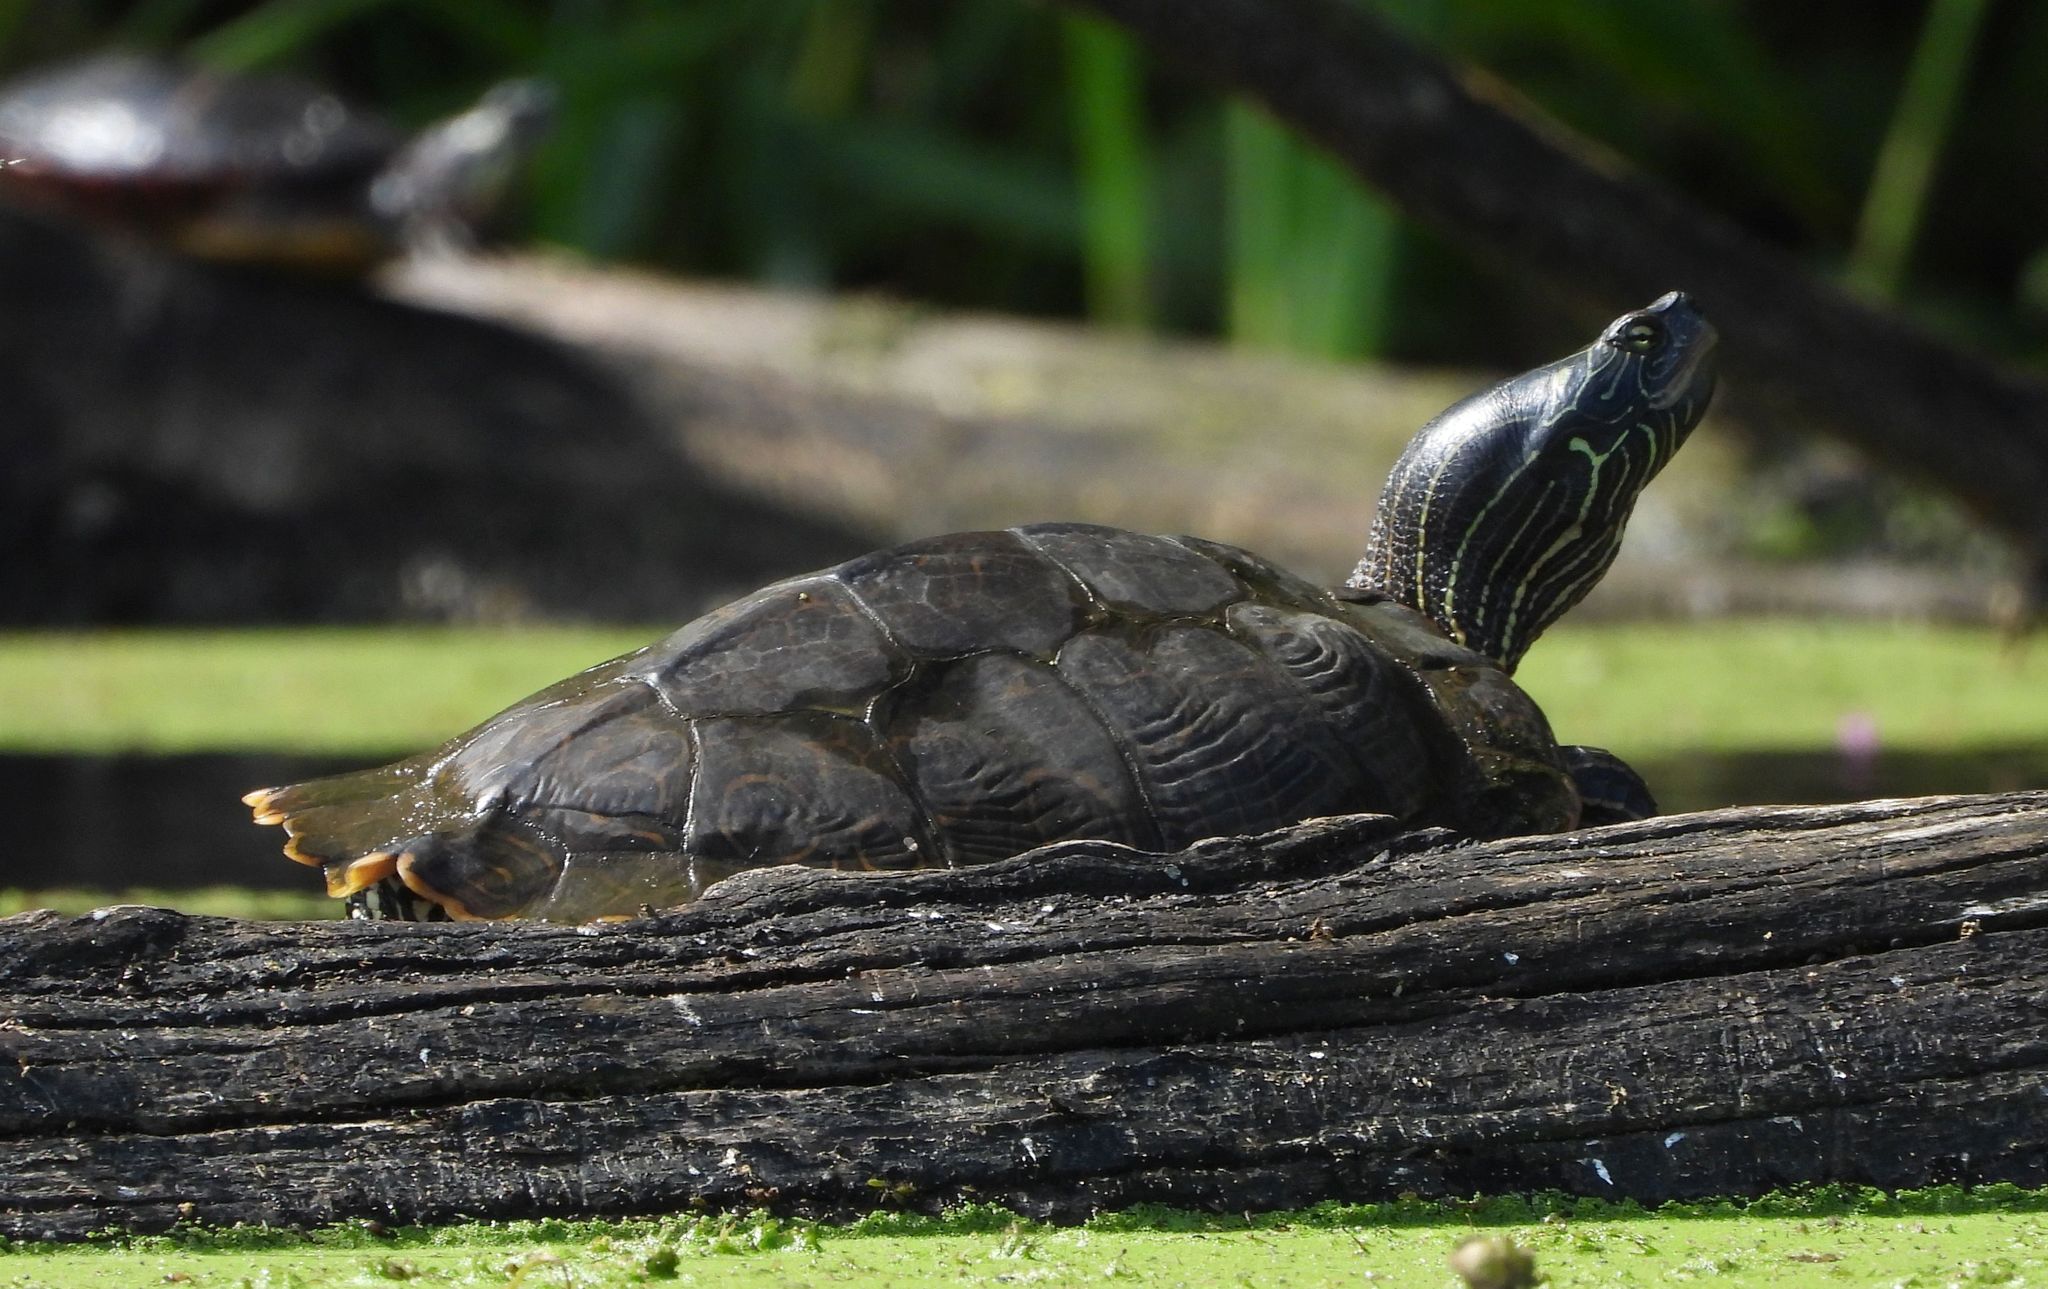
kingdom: Animalia
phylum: Chordata
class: Testudines
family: Emydidae
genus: Graptemys
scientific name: Graptemys geographica
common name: Common map turtle
